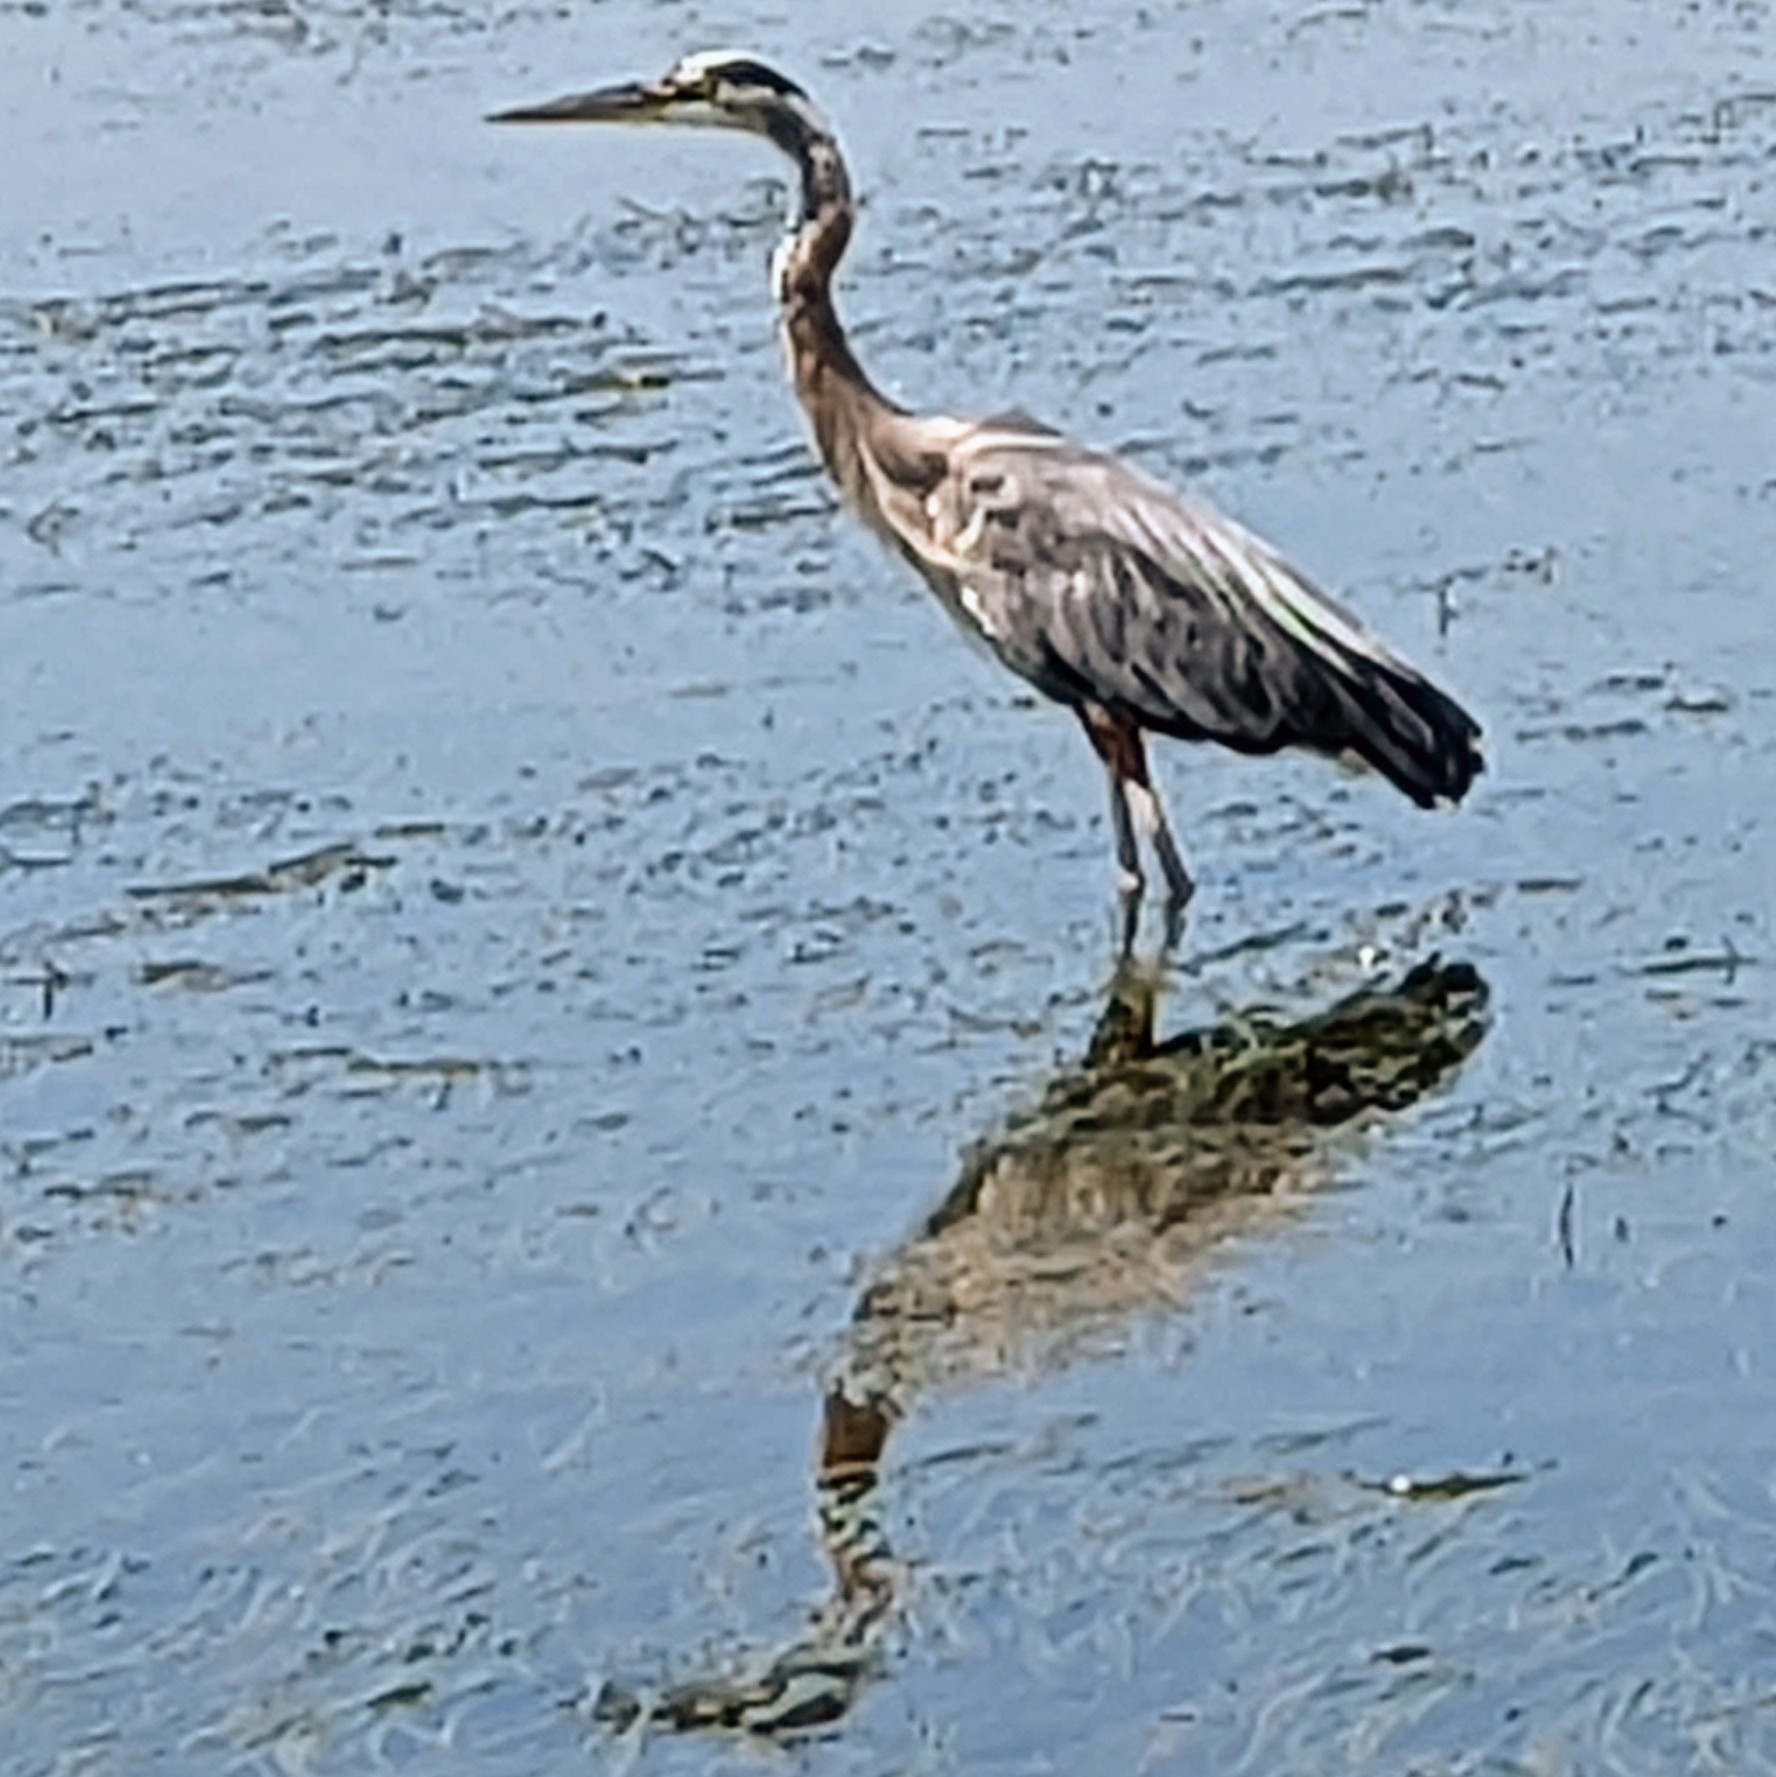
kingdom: Animalia
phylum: Chordata
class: Aves
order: Pelecaniformes
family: Ardeidae
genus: Ardea
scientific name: Ardea herodias
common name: Great blue heron
